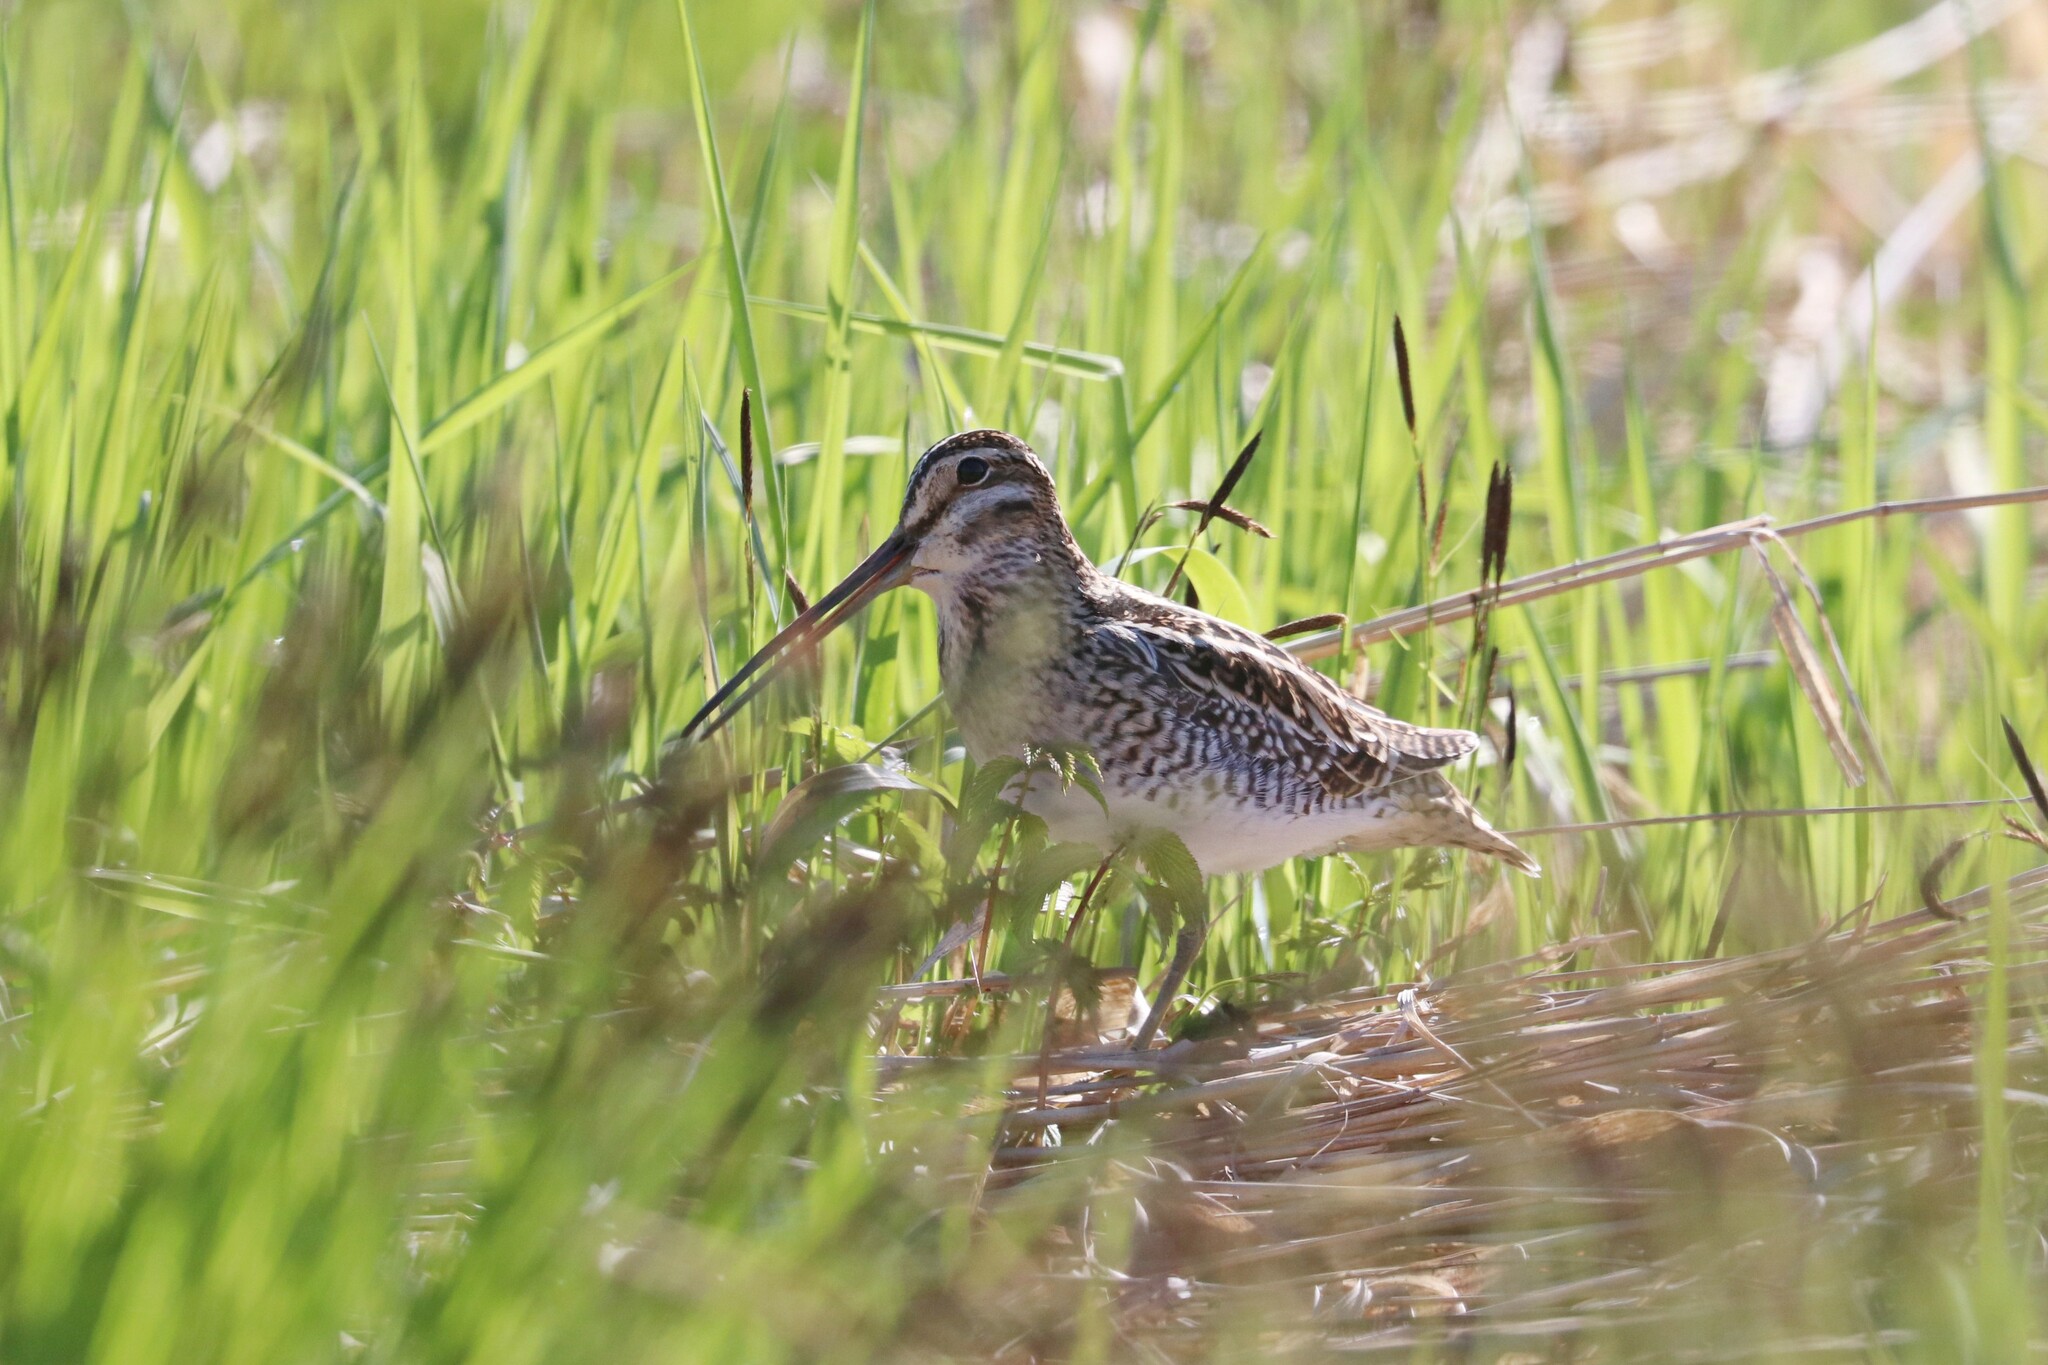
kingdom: Animalia
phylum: Chordata
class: Aves
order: Charadriiformes
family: Scolopacidae
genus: Gallinago
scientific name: Gallinago gallinago
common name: Common snipe
